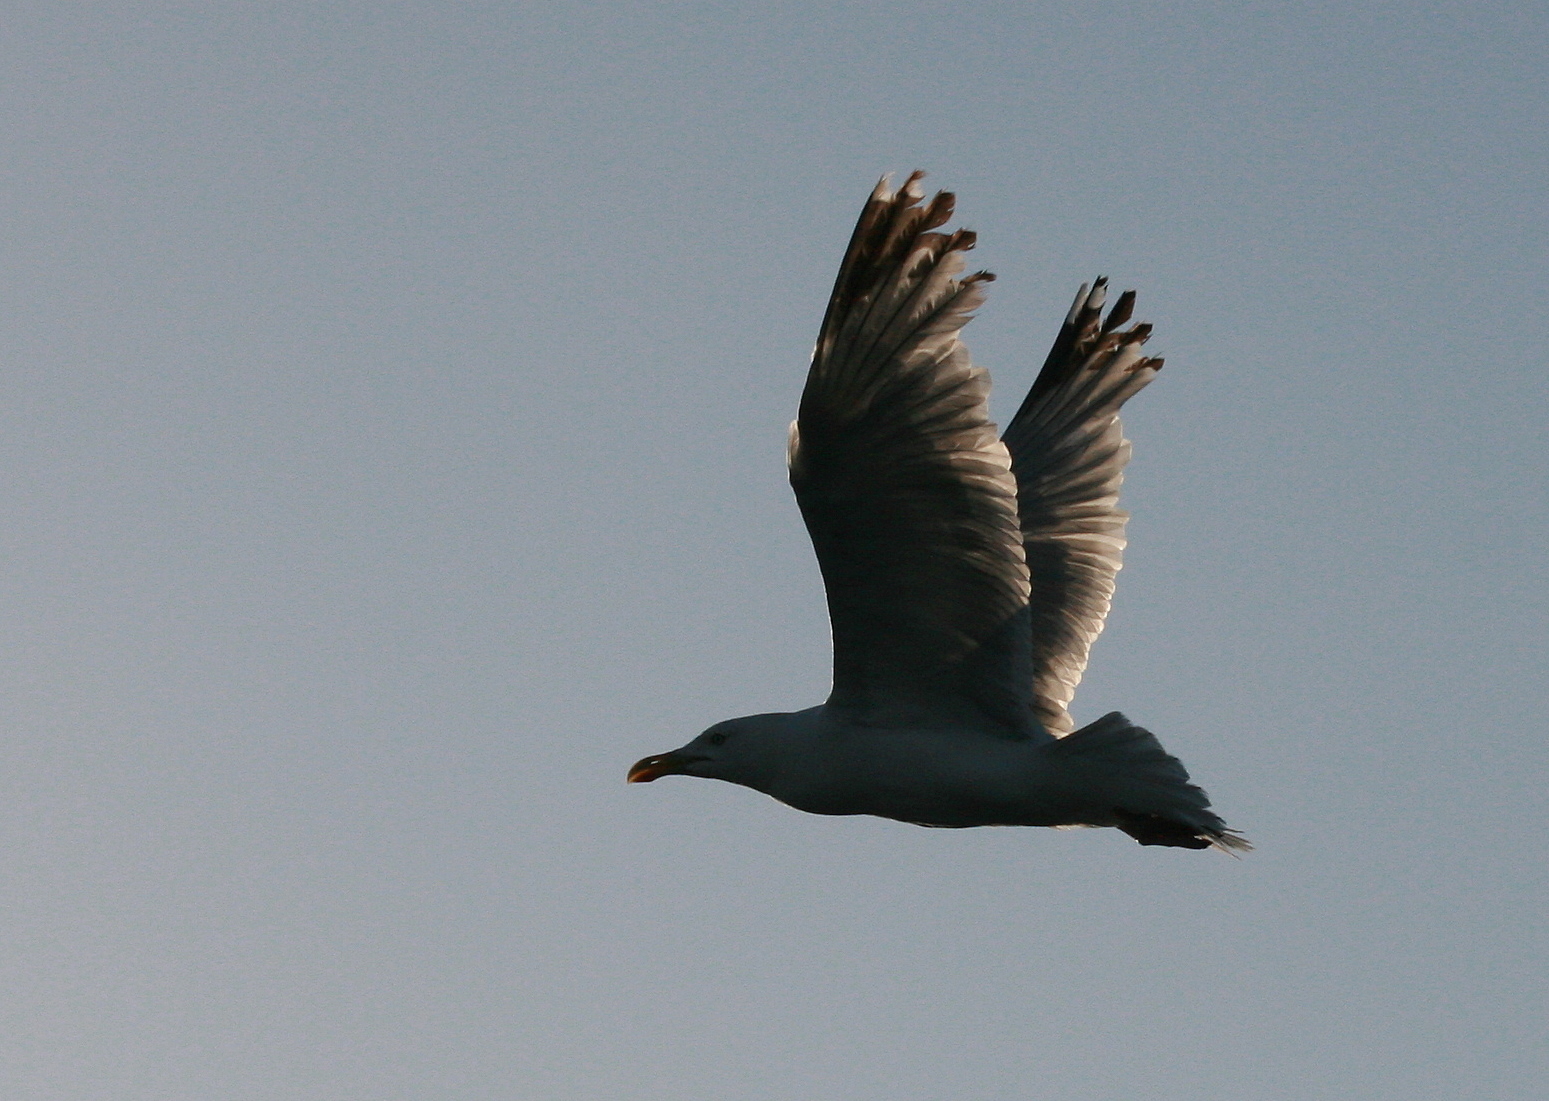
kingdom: Animalia
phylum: Chordata
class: Aves
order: Charadriiformes
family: Laridae
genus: Larus
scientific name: Larus argentatus
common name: Herring gull
